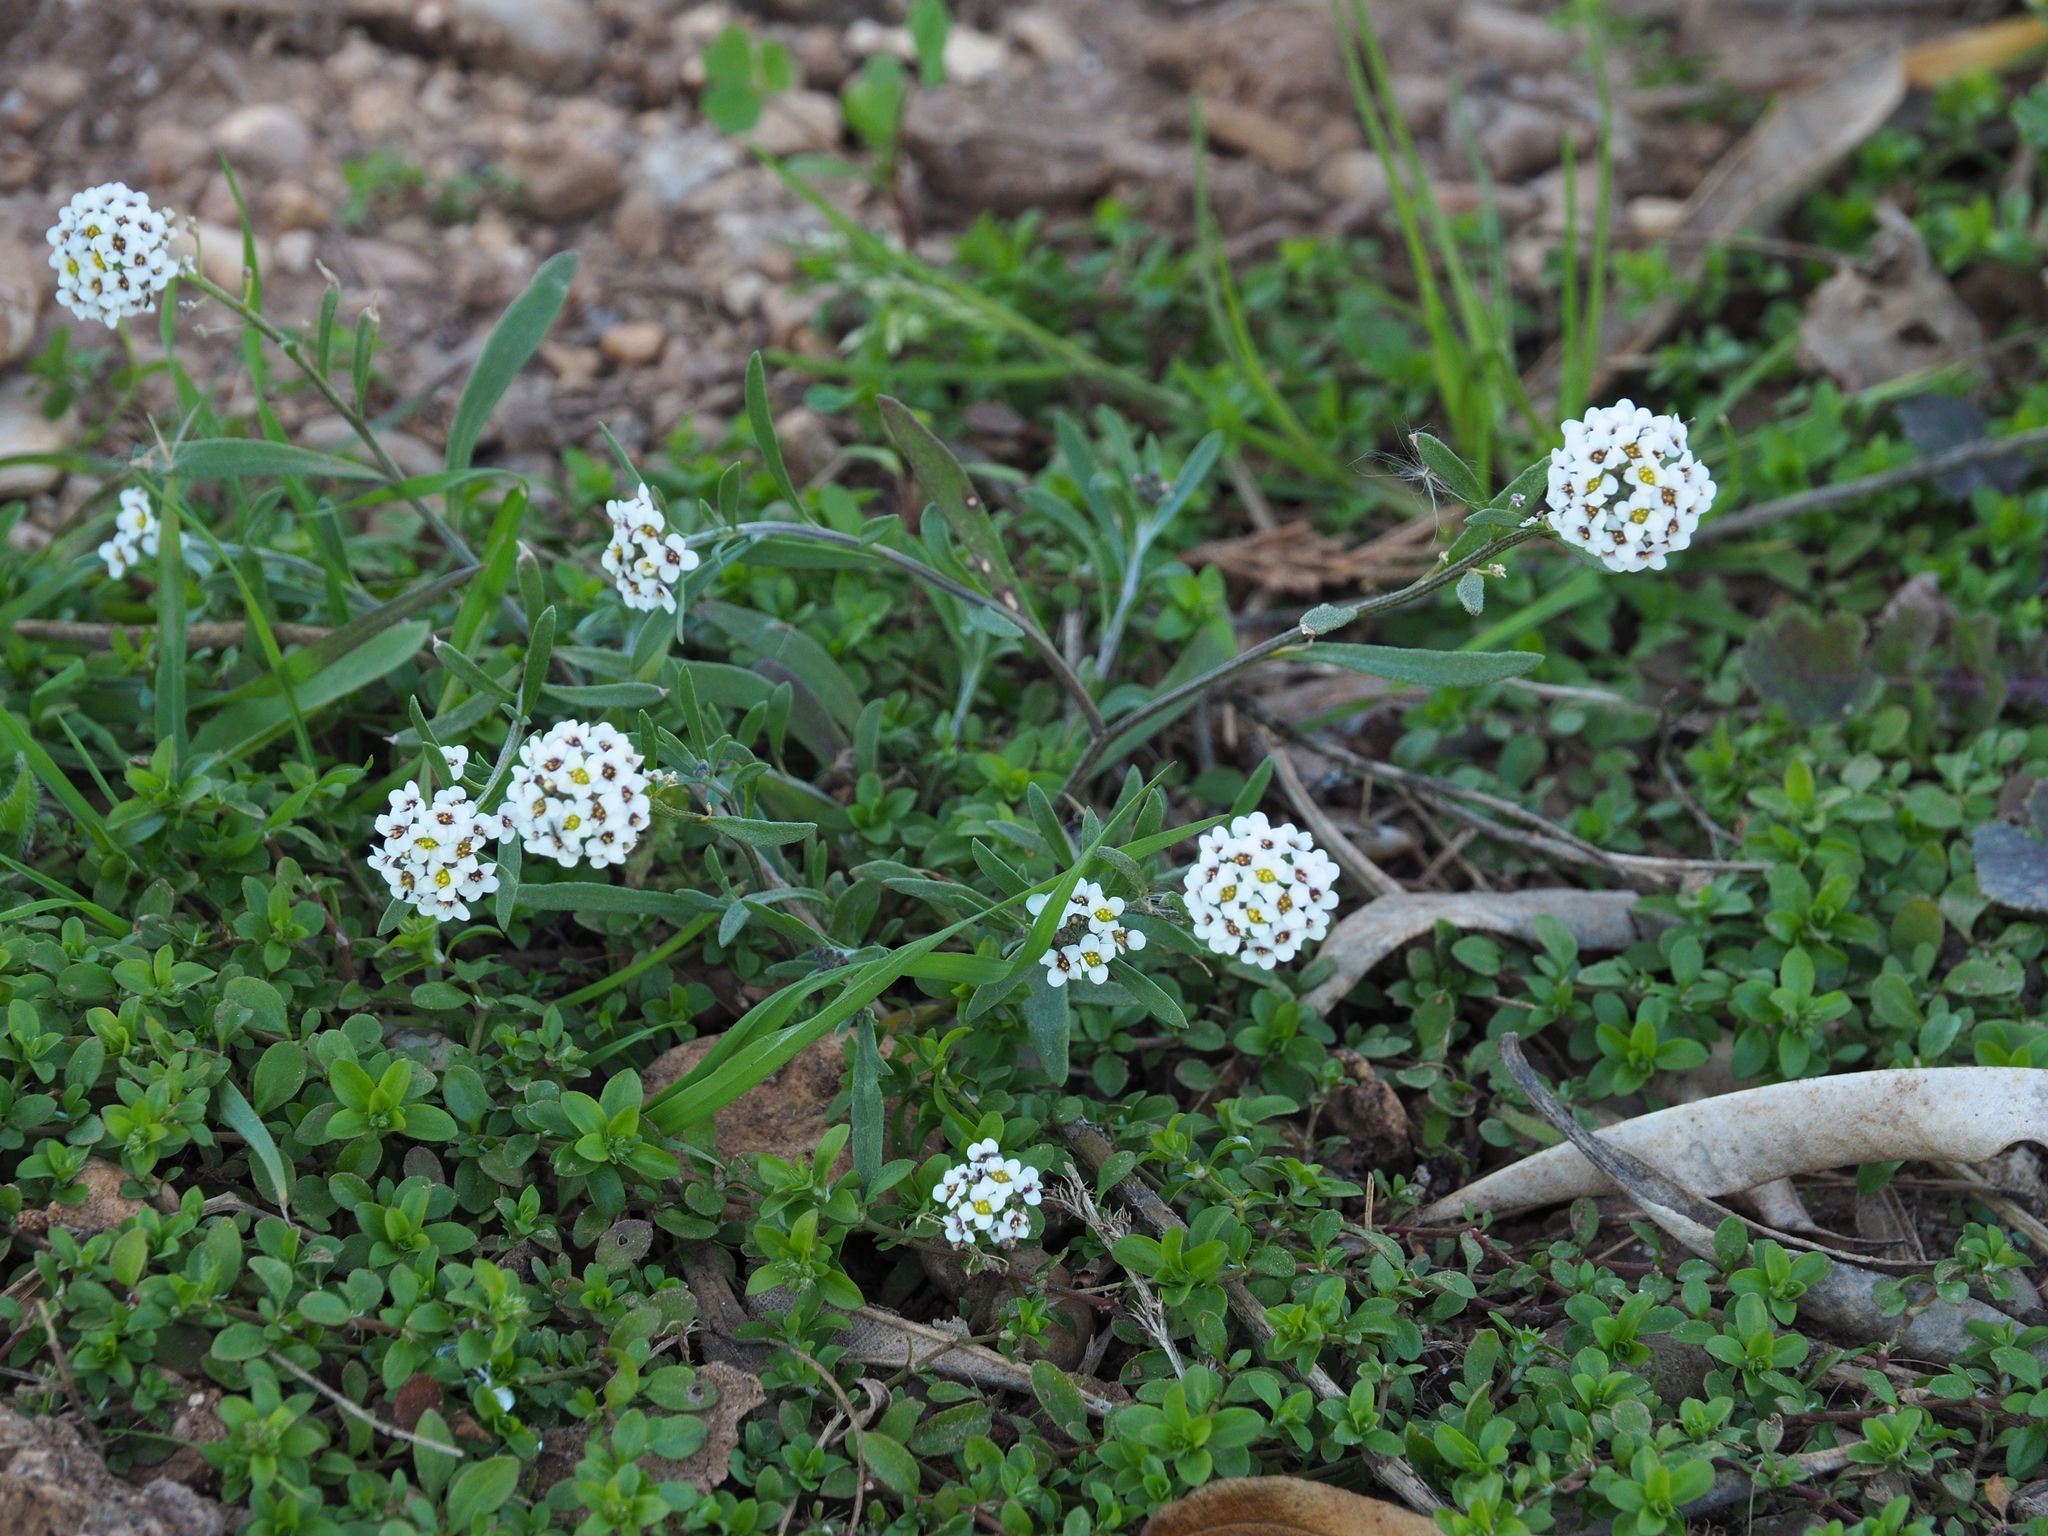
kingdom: Plantae
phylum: Tracheophyta
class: Magnoliopsida
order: Brassicales
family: Brassicaceae
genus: Lobularia
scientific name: Lobularia maritima
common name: Sweet alison
